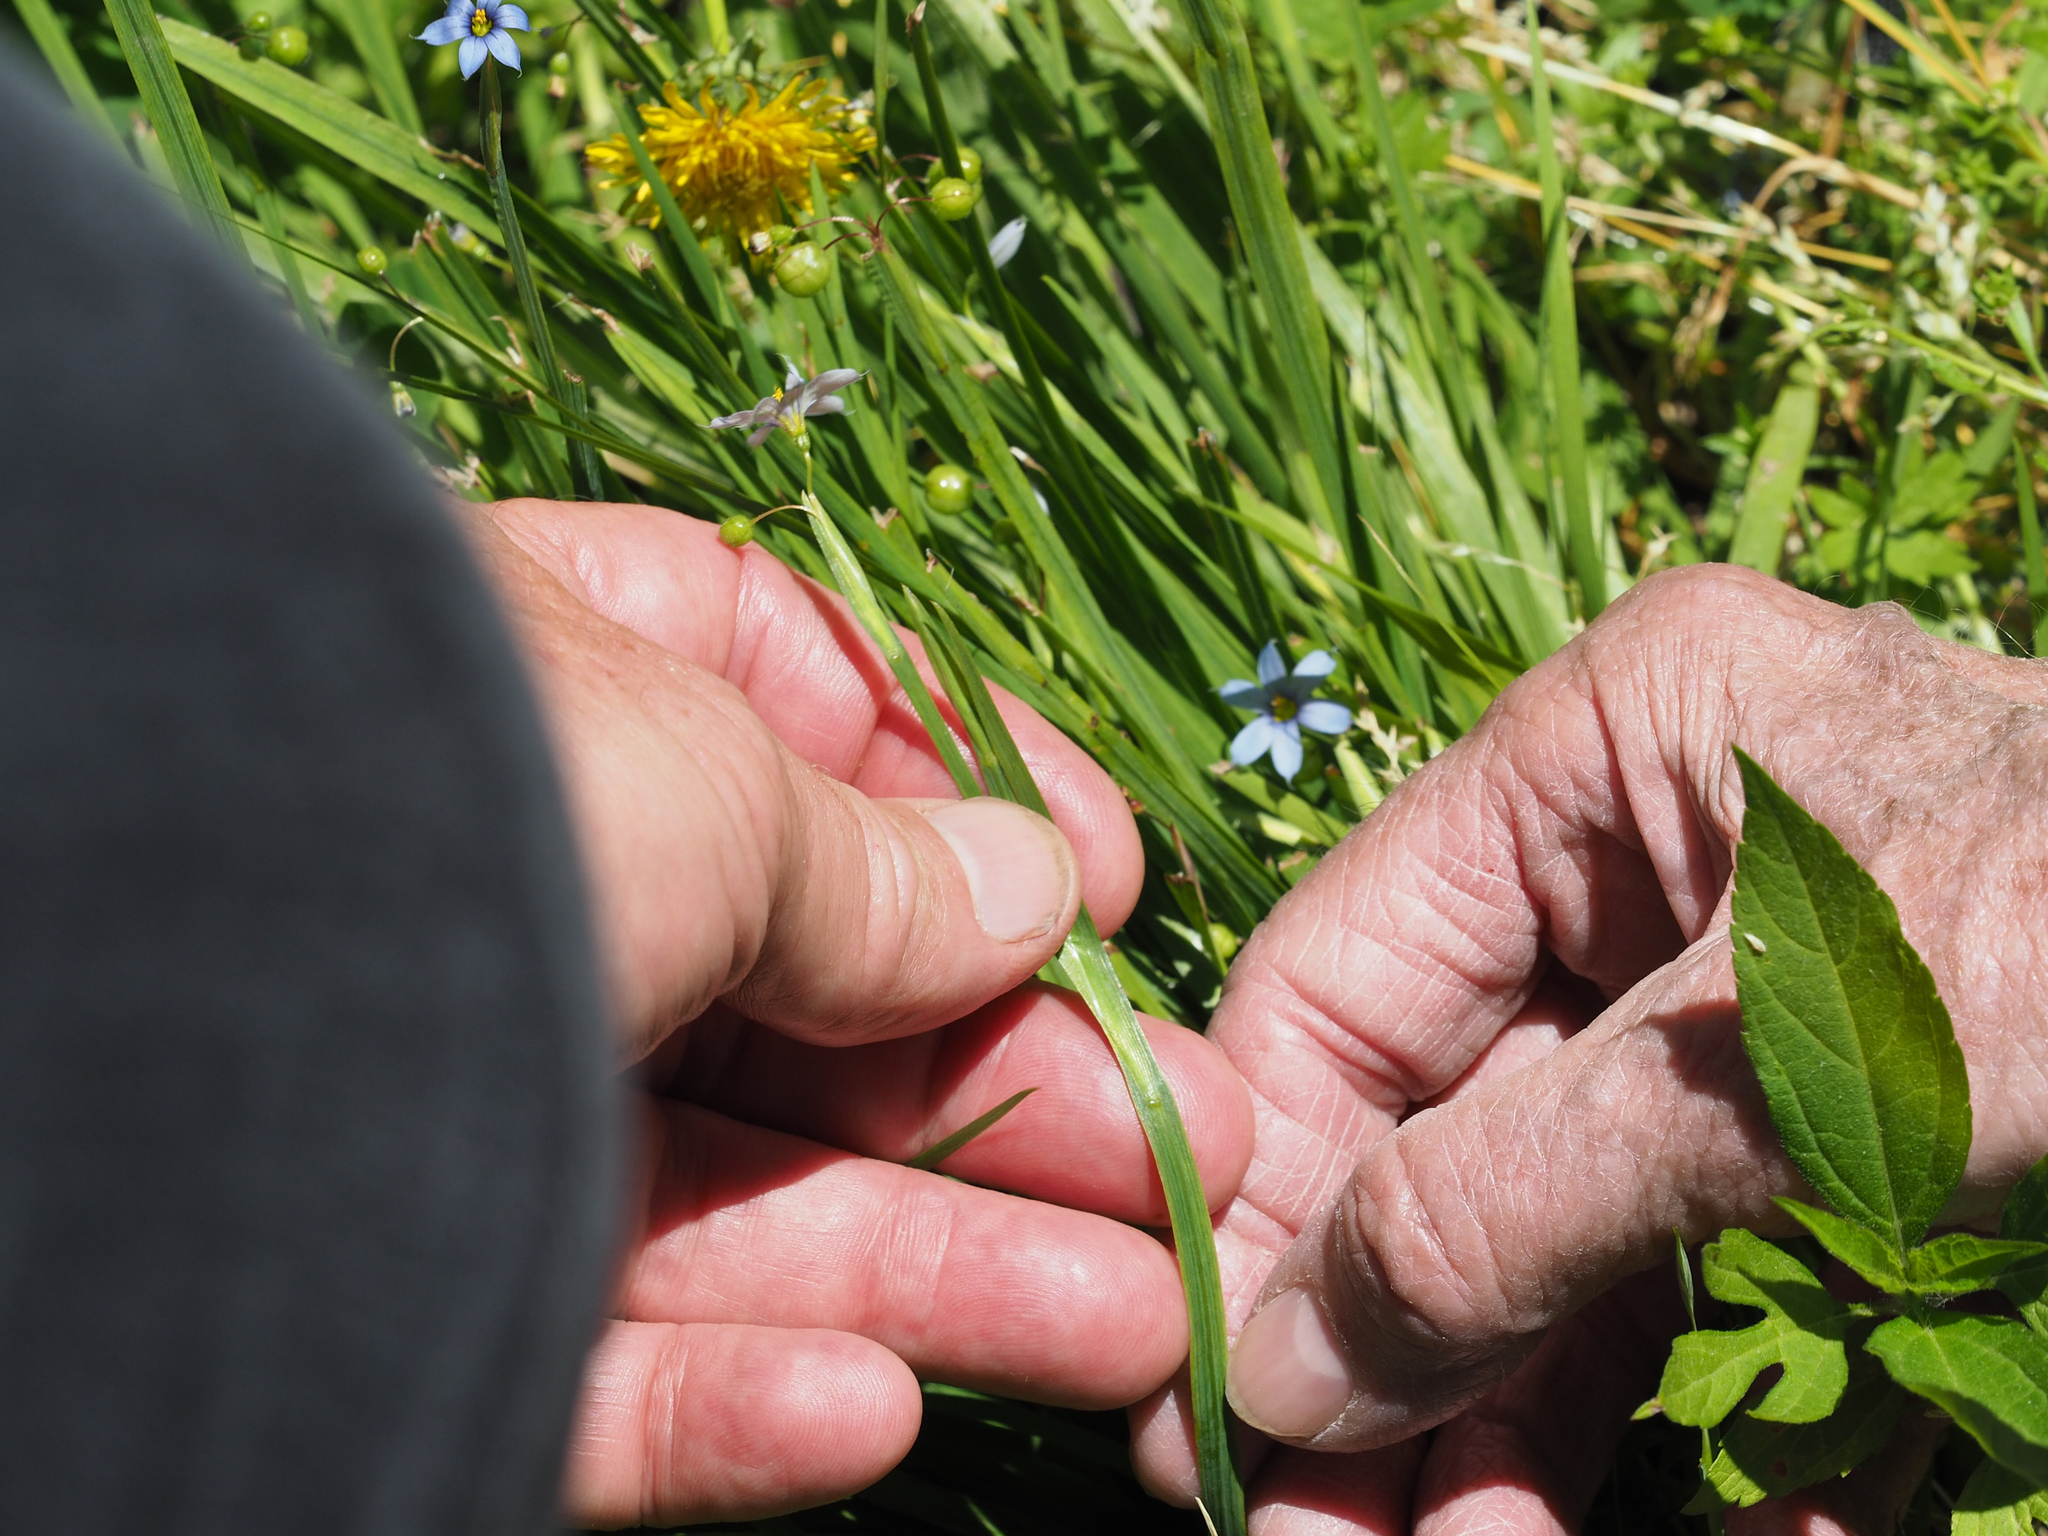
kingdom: Plantae
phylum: Tracheophyta
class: Liliopsida
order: Asparagales
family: Iridaceae
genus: Sisyrinchium
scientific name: Sisyrinchium angustifolium
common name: Narrow-leaf blue-eyed-grass
